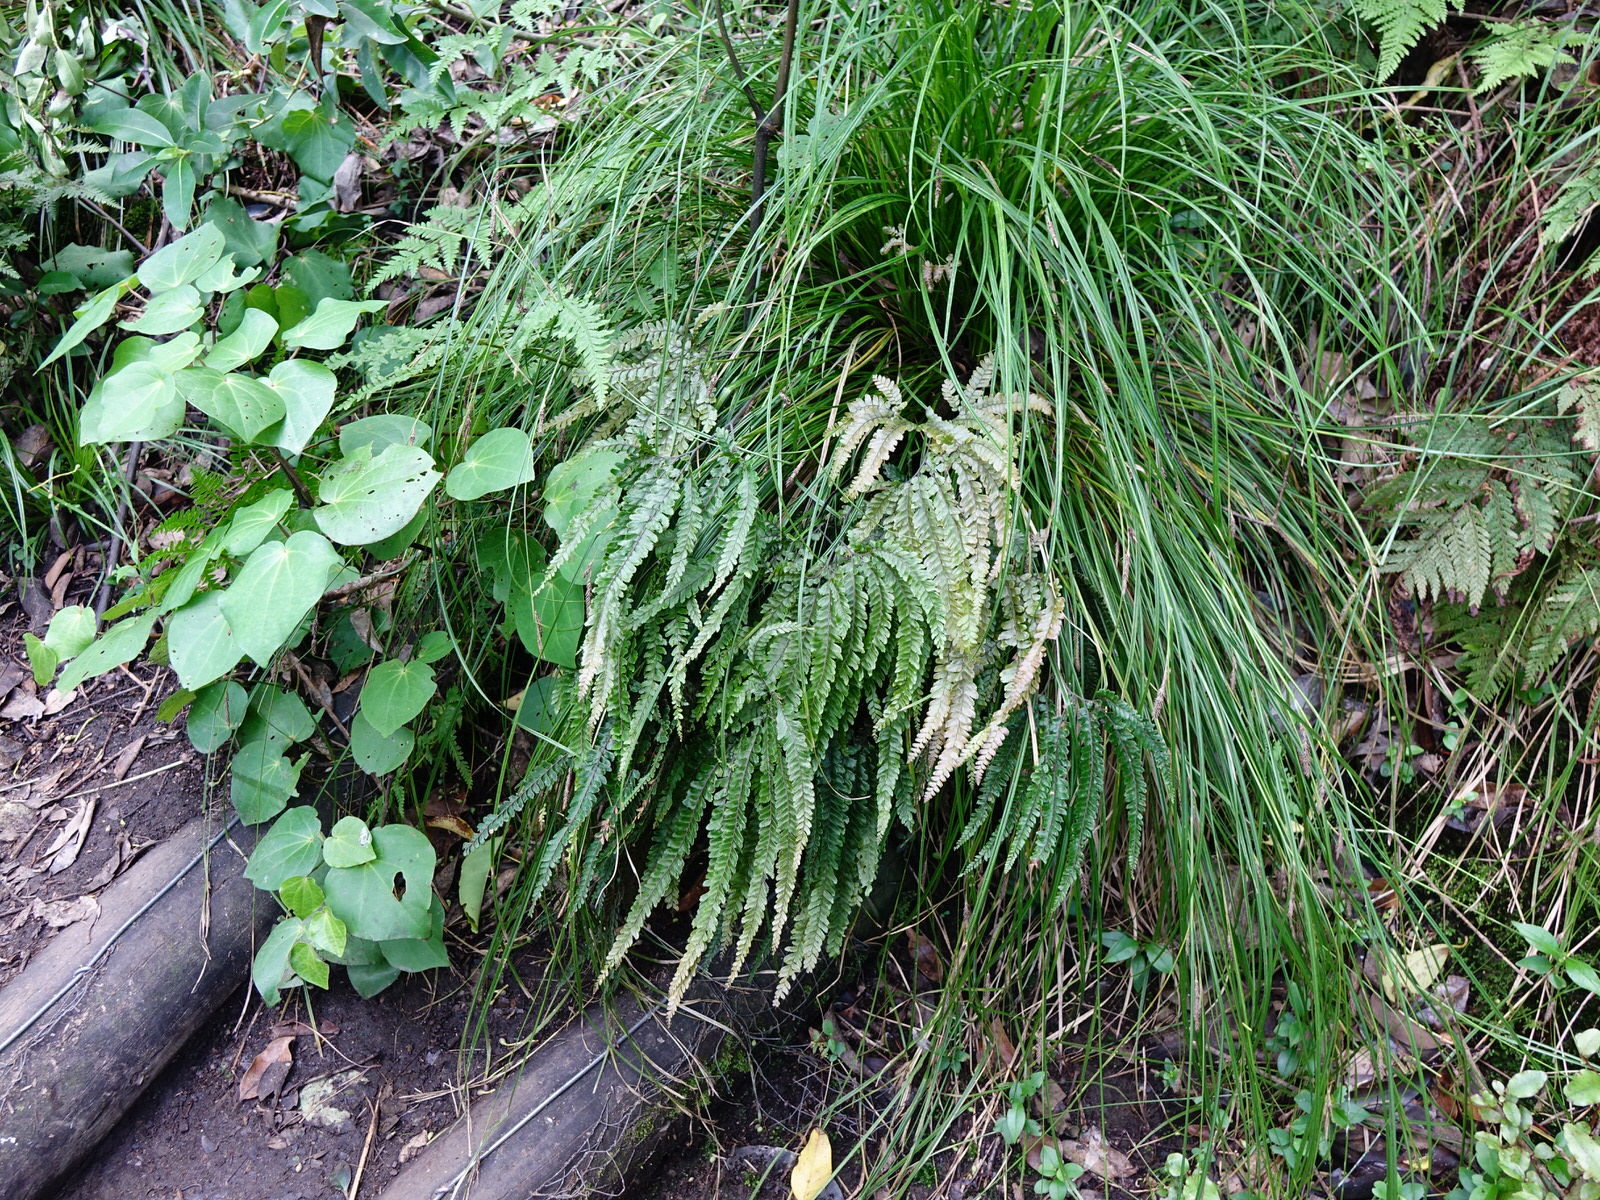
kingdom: Plantae
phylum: Tracheophyta
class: Polypodiopsida
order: Polypodiales
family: Pteridaceae
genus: Adiantum
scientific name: Adiantum hispidulum
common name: Rough maidenhair
